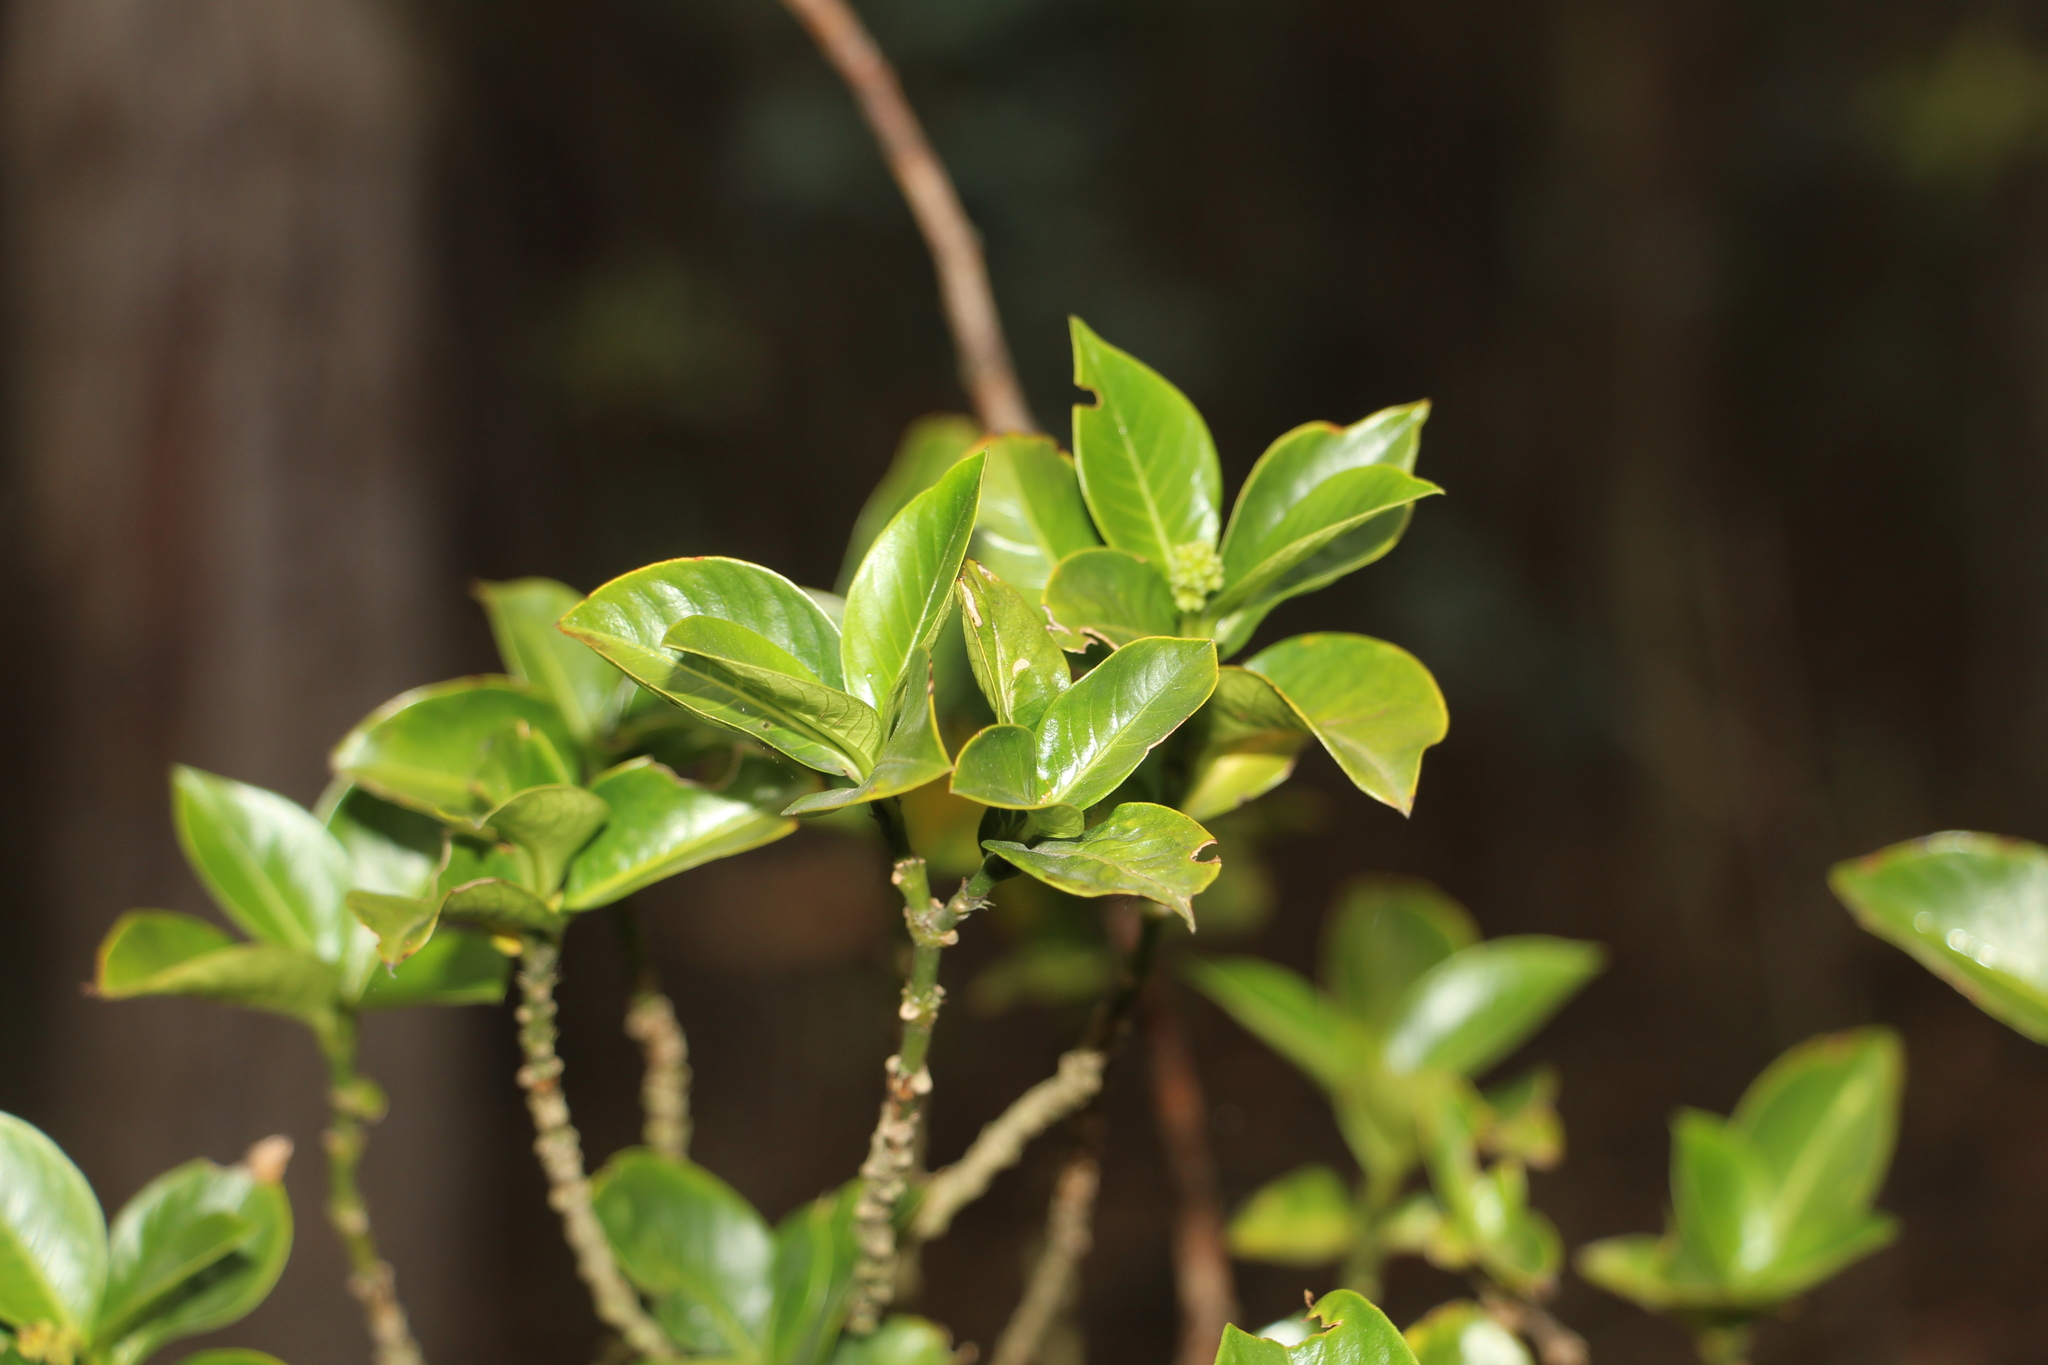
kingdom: Plantae
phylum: Tracheophyta
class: Magnoliopsida
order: Gentianales
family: Rubiaceae
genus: Palicourea
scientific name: Palicourea boqueronensis
